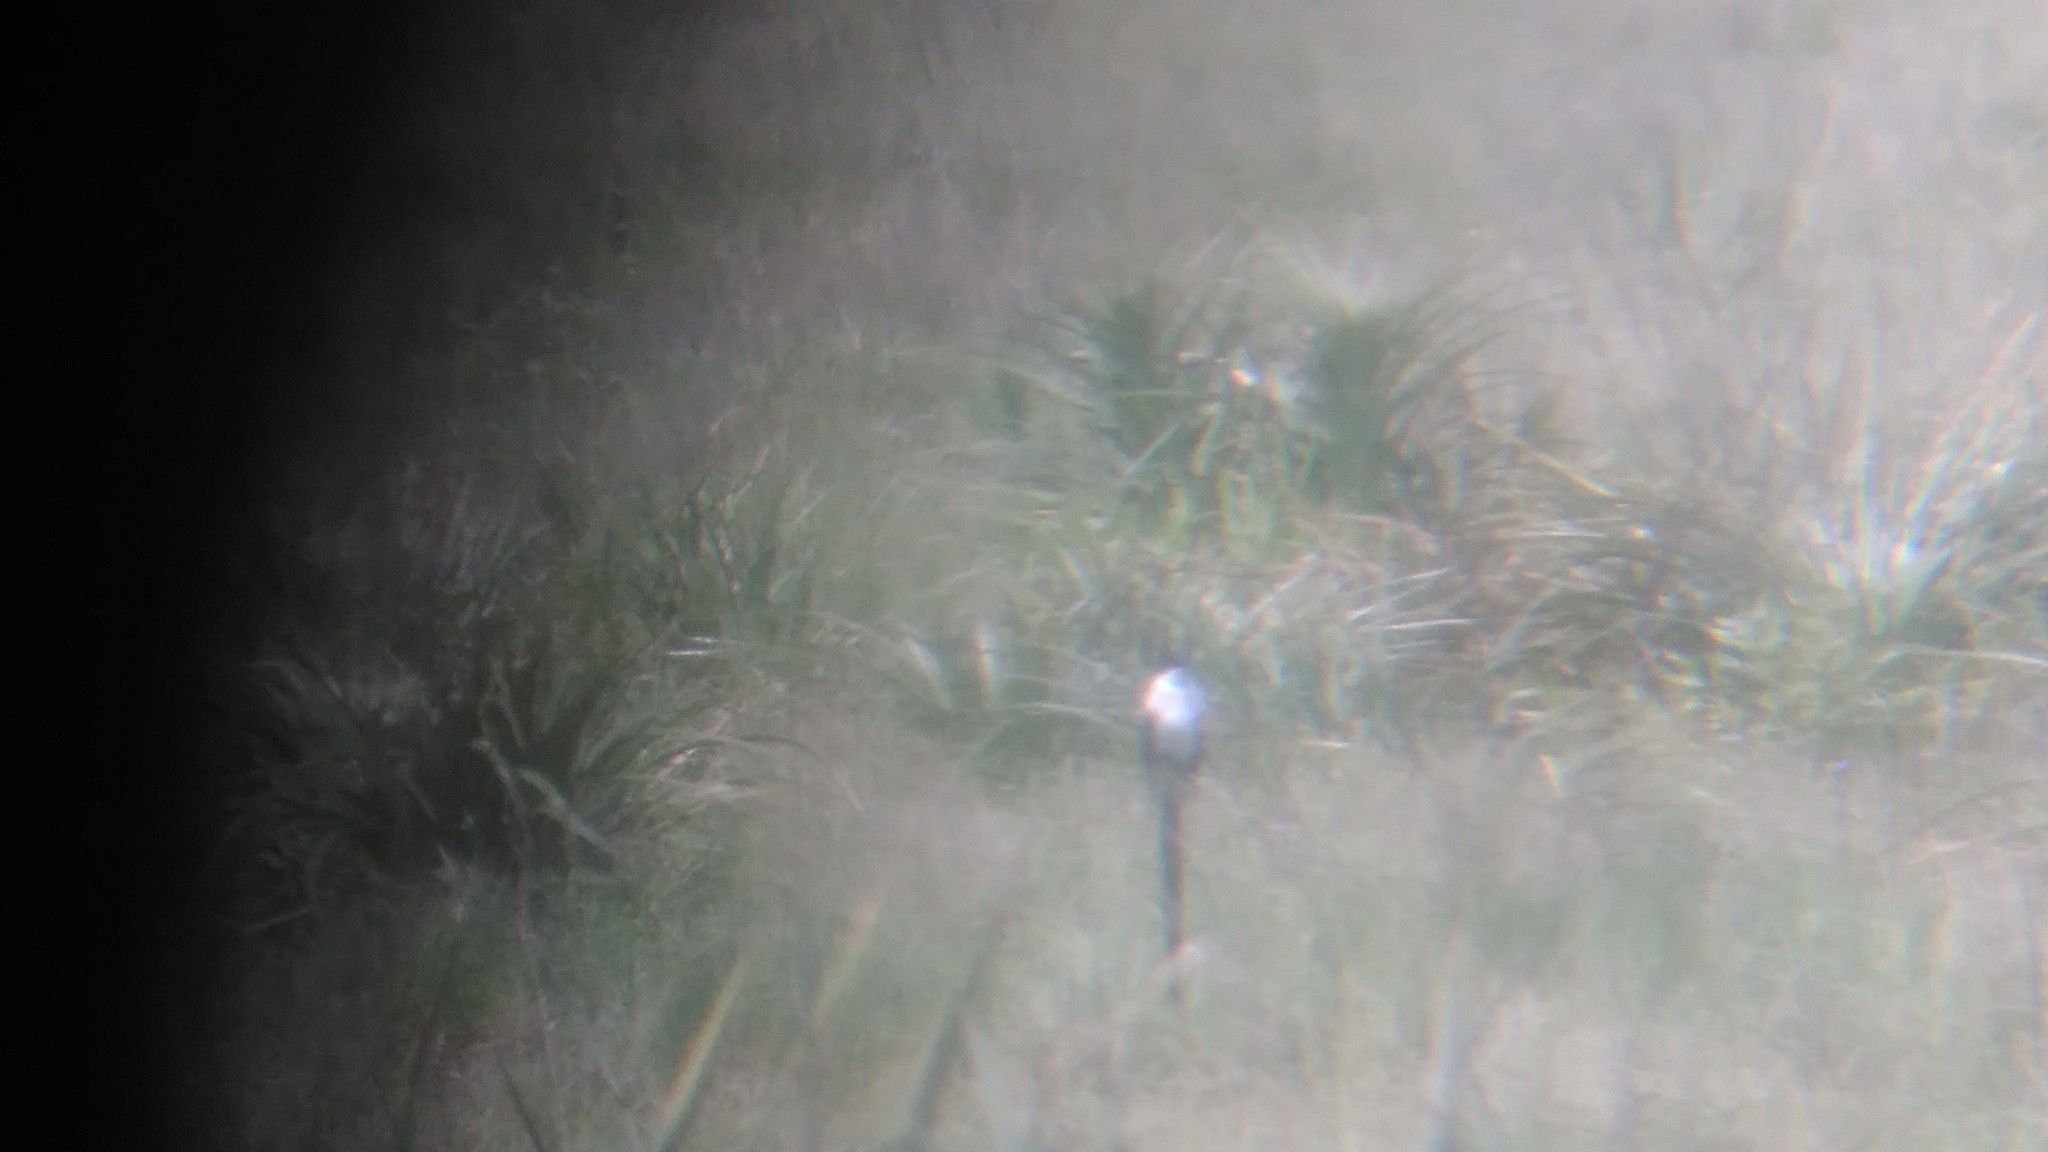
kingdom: Animalia
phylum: Chordata
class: Aves
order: Passeriformes
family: Tyrannidae
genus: Tyrannus
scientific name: Tyrannus savana
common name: Fork-tailed flycatcher
